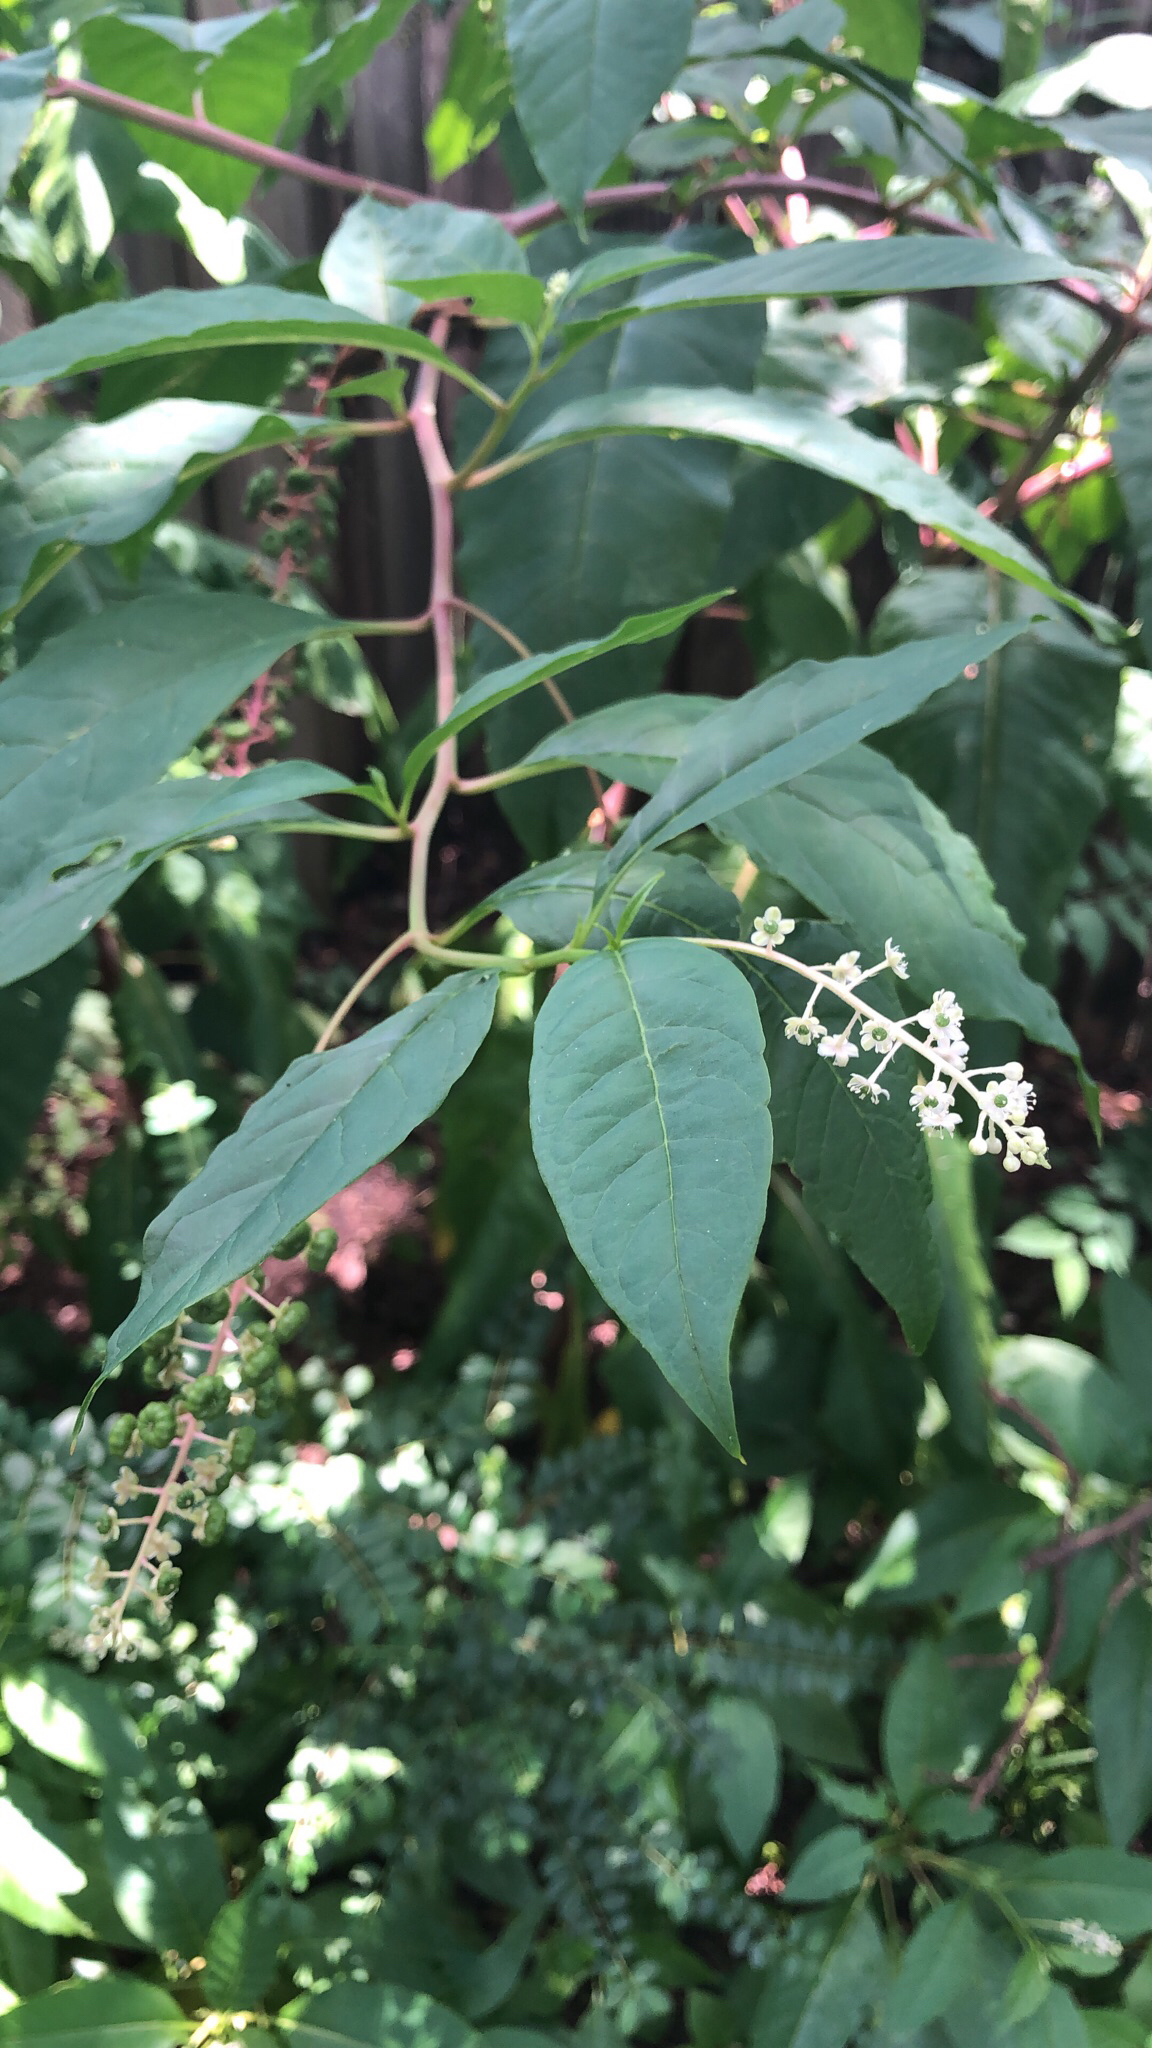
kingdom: Plantae
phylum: Tracheophyta
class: Magnoliopsida
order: Caryophyllales
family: Phytolaccaceae
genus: Phytolacca
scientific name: Phytolacca americana
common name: American pokeweed
